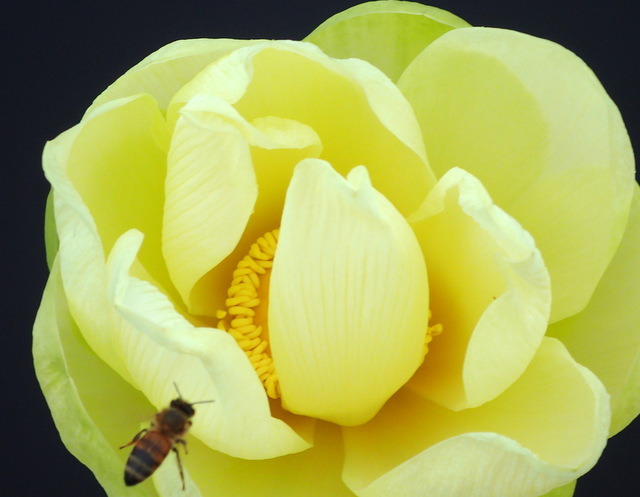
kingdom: Animalia
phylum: Arthropoda
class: Insecta
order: Hymenoptera
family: Apidae
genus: Apis
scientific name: Apis mellifera
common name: Honey bee
